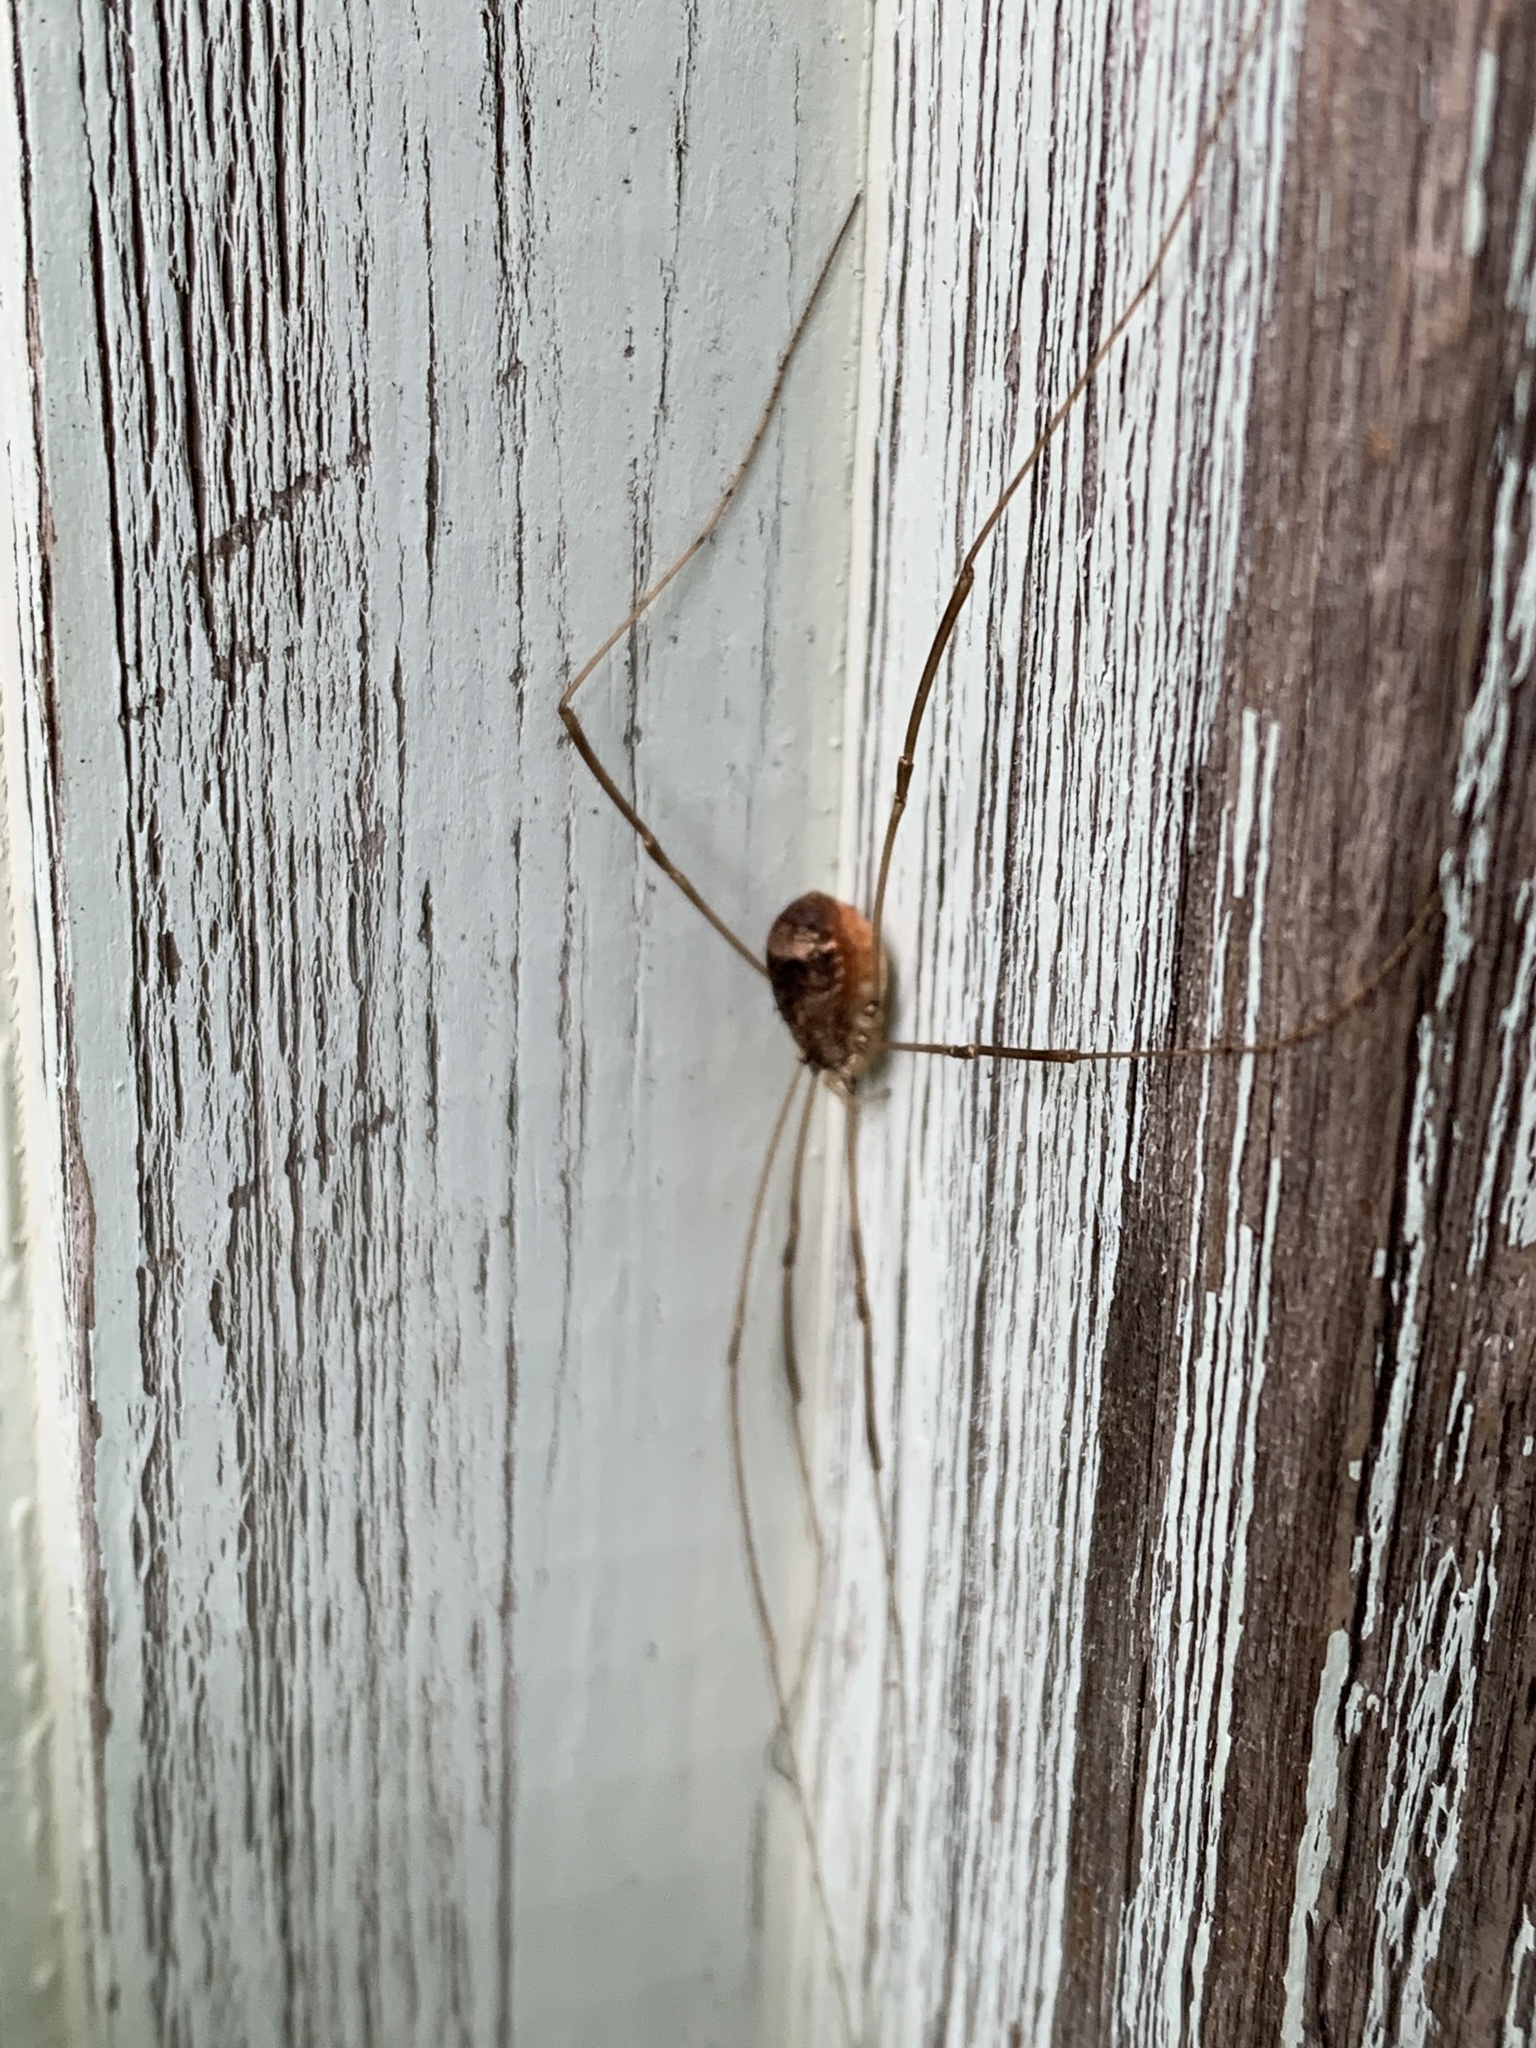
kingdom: Animalia
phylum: Arthropoda
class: Arachnida
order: Opiliones
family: Sclerosomatidae
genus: Leiobunum
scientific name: Leiobunum blackwalli
